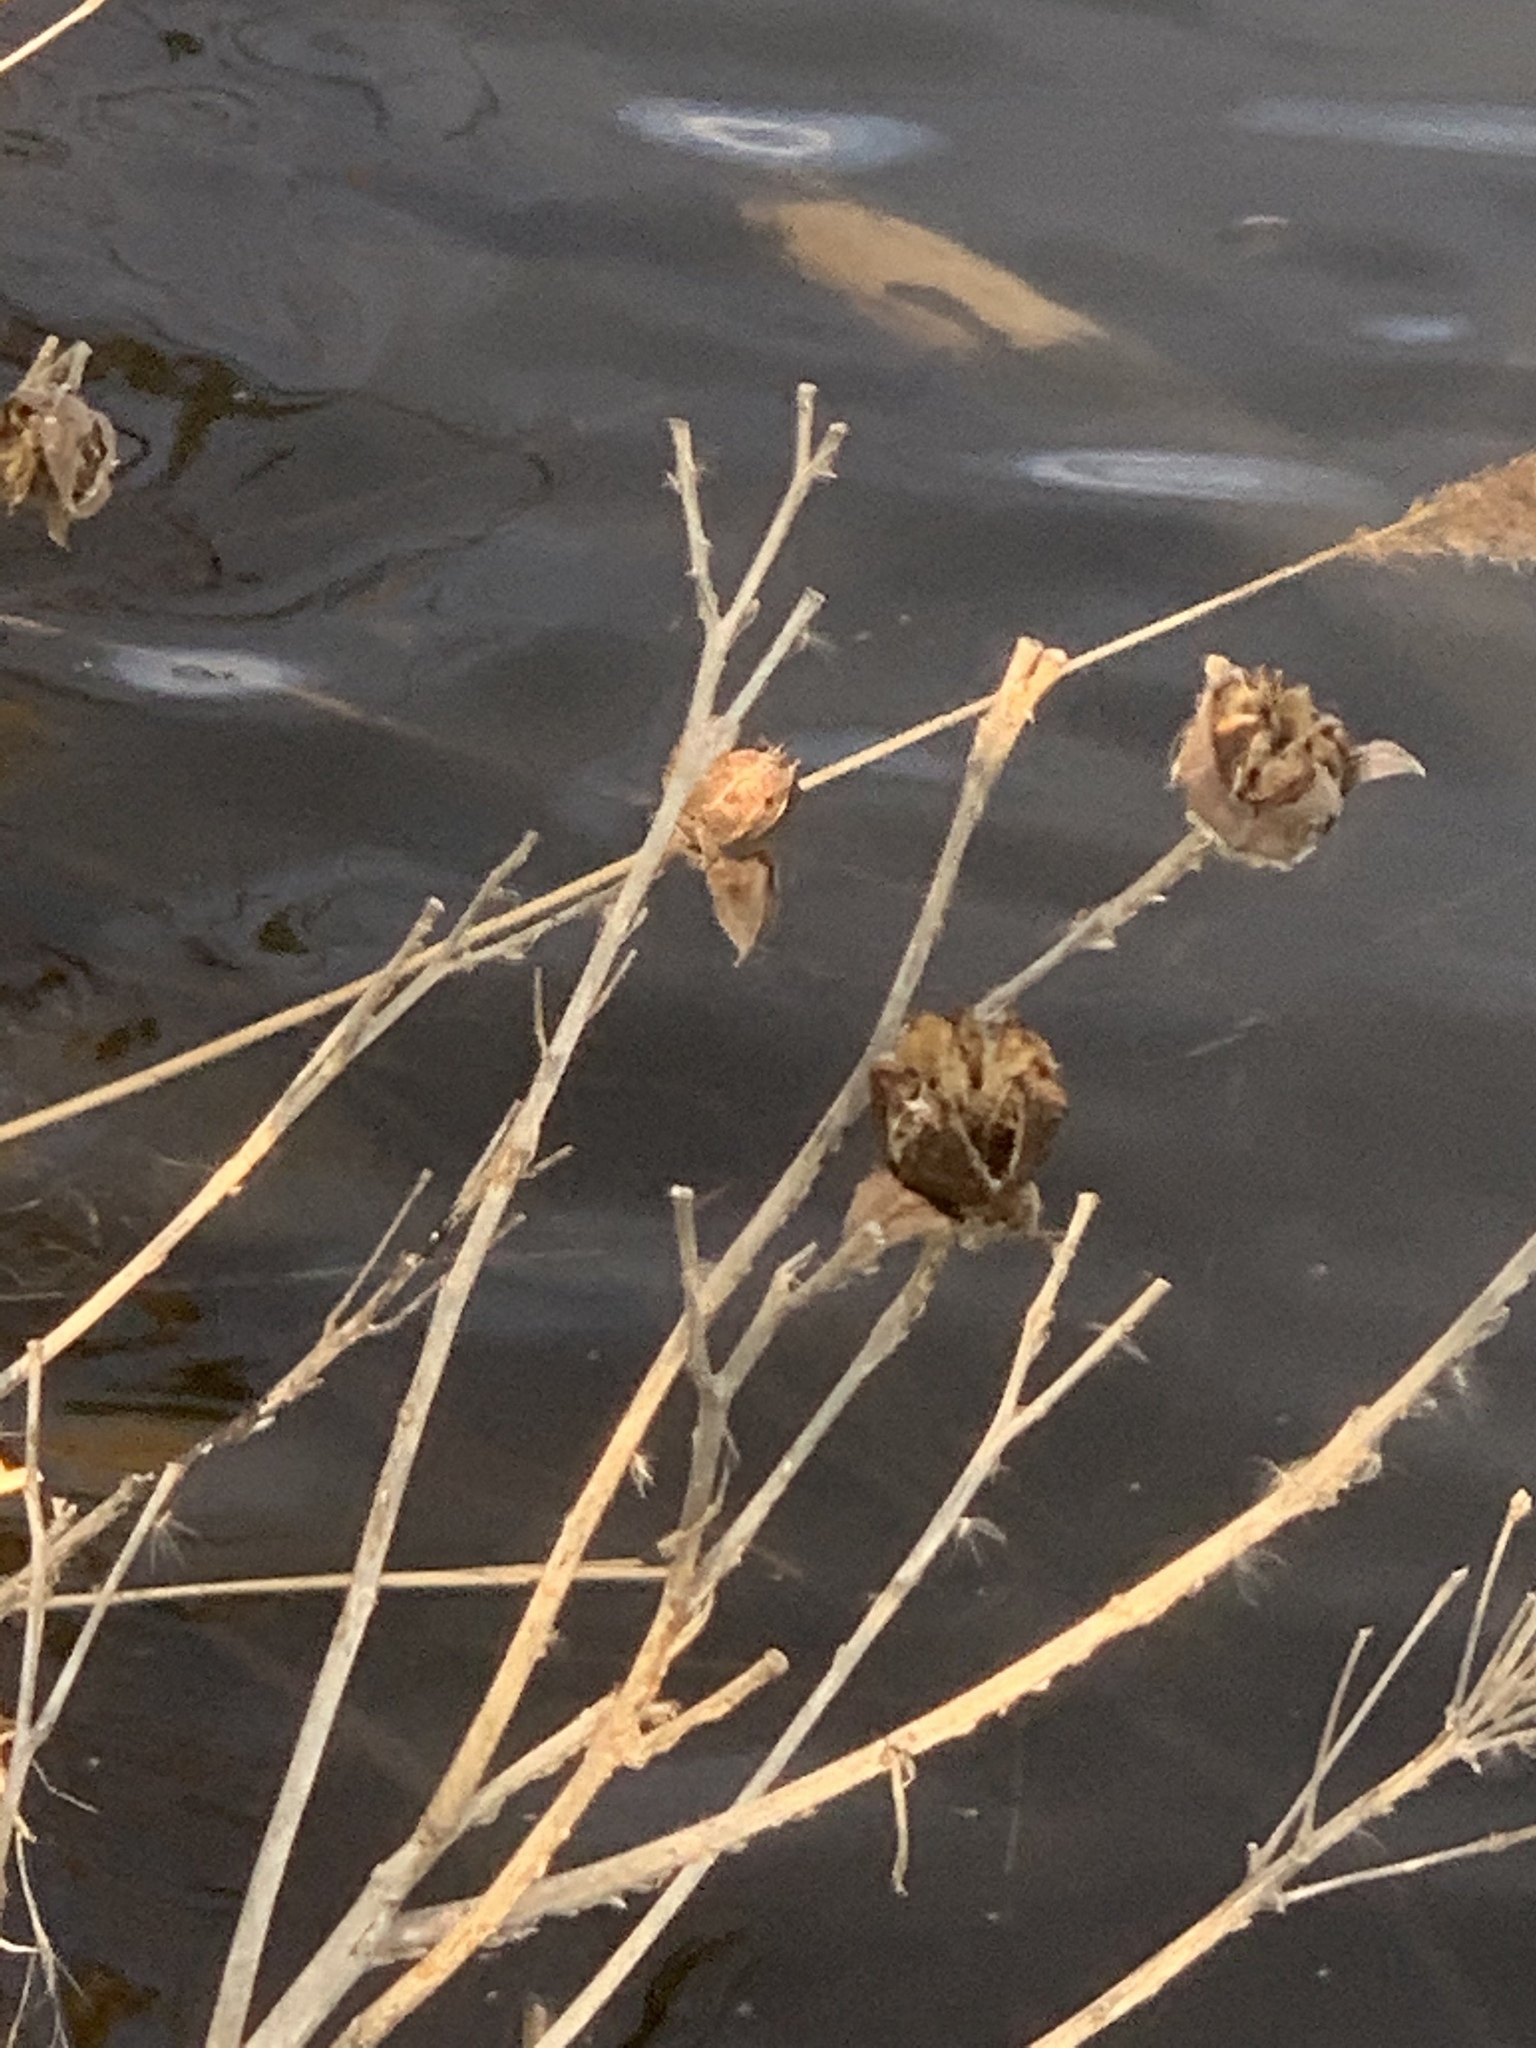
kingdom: Plantae
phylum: Tracheophyta
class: Magnoliopsida
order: Malvales
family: Malvaceae
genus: Hibiscus
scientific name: Hibiscus moscheutos
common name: Common rose-mallow
